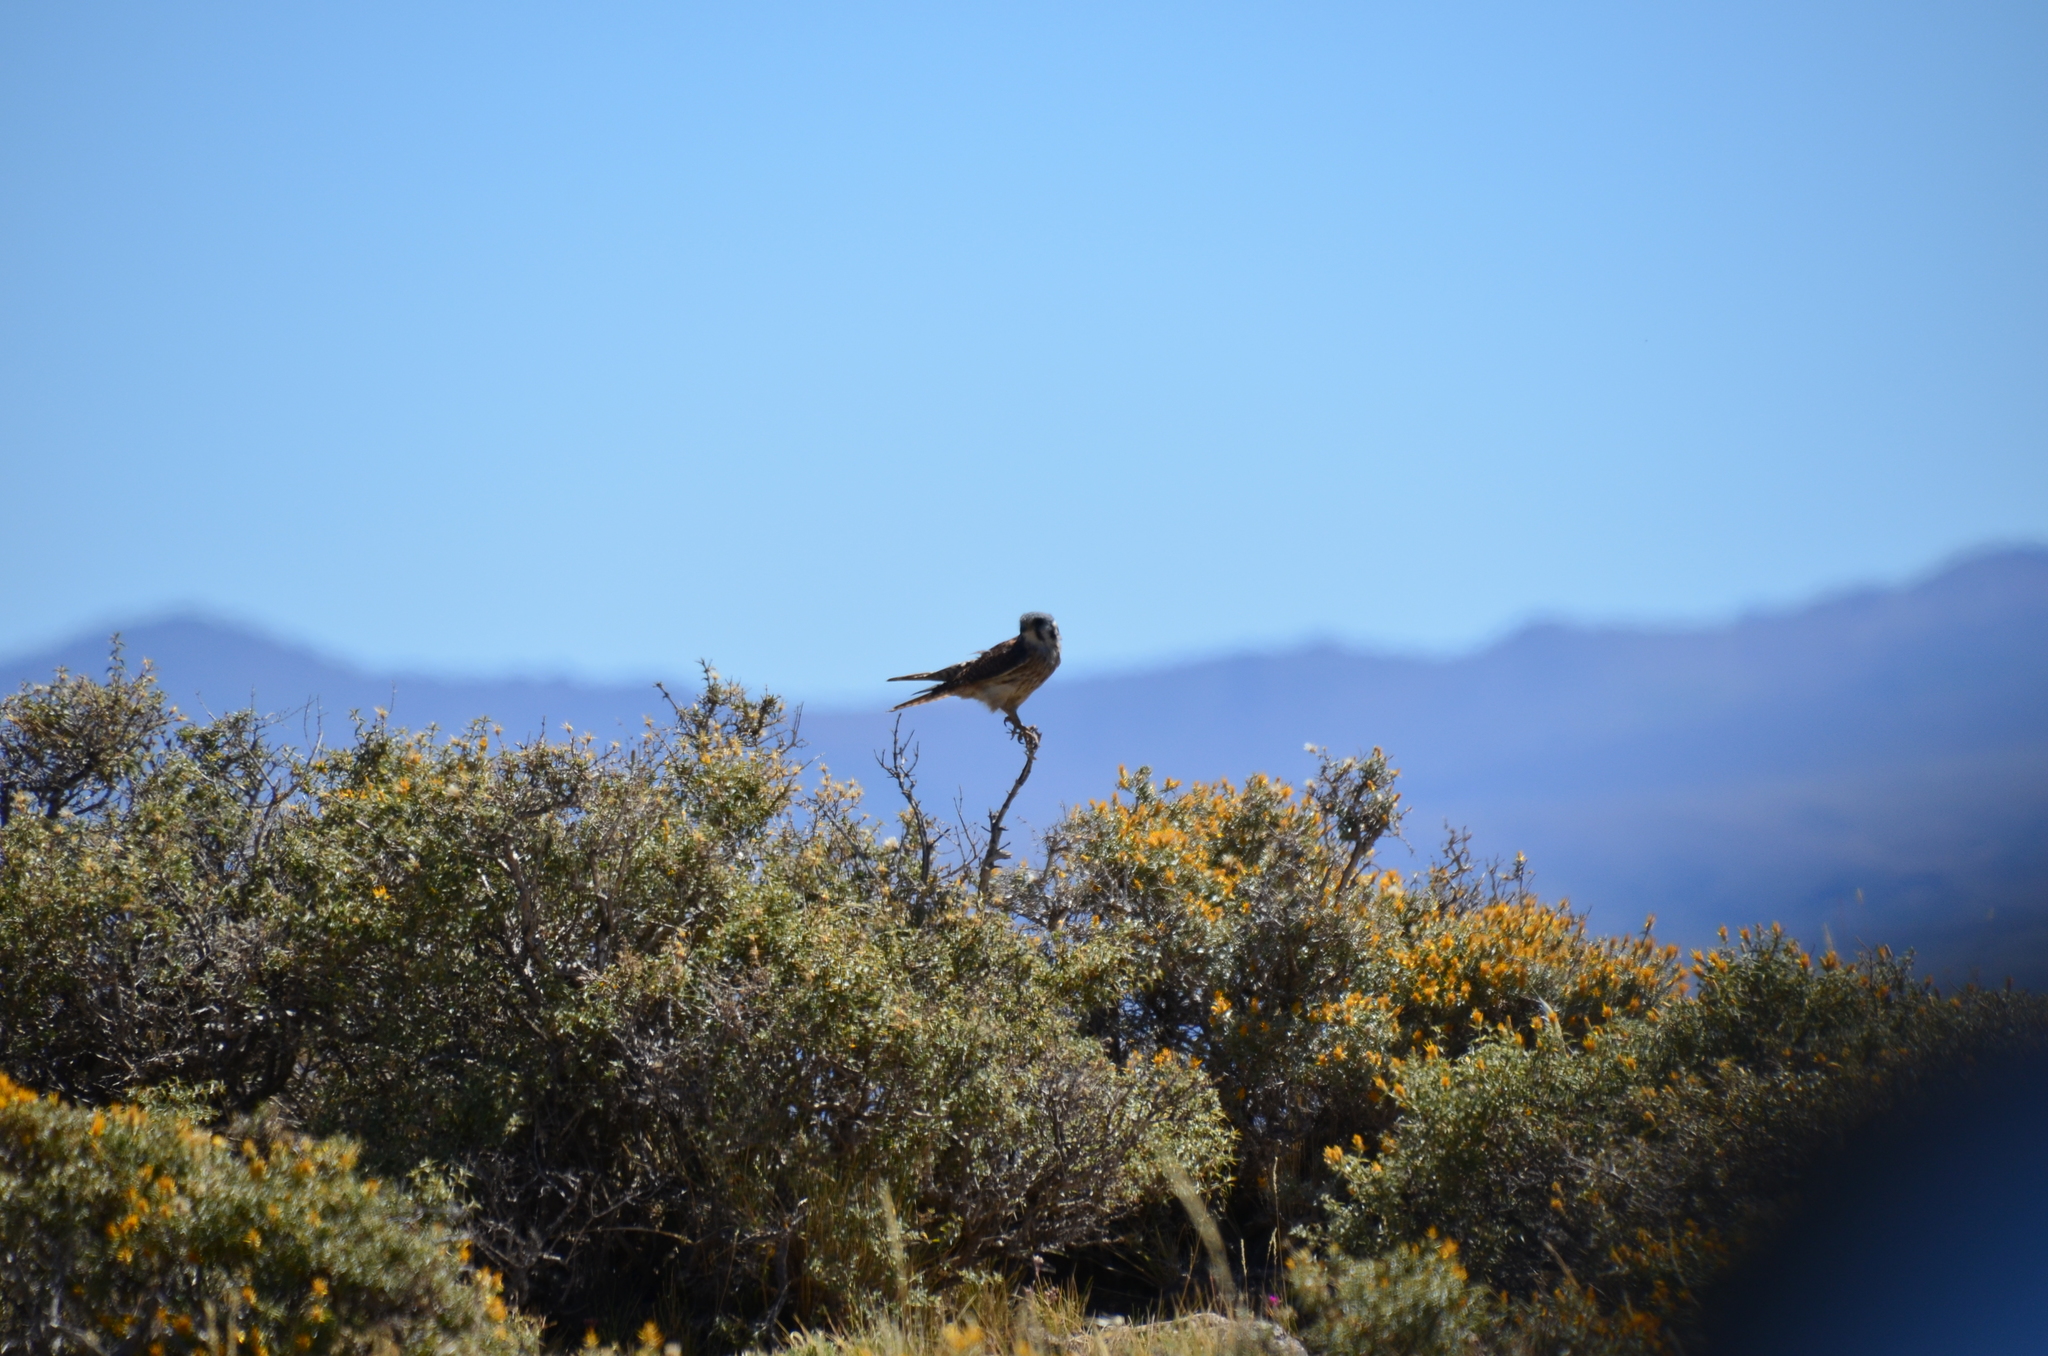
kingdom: Animalia
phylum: Chordata
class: Aves
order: Falconiformes
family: Falconidae
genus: Falco
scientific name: Falco sparverius
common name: American kestrel
